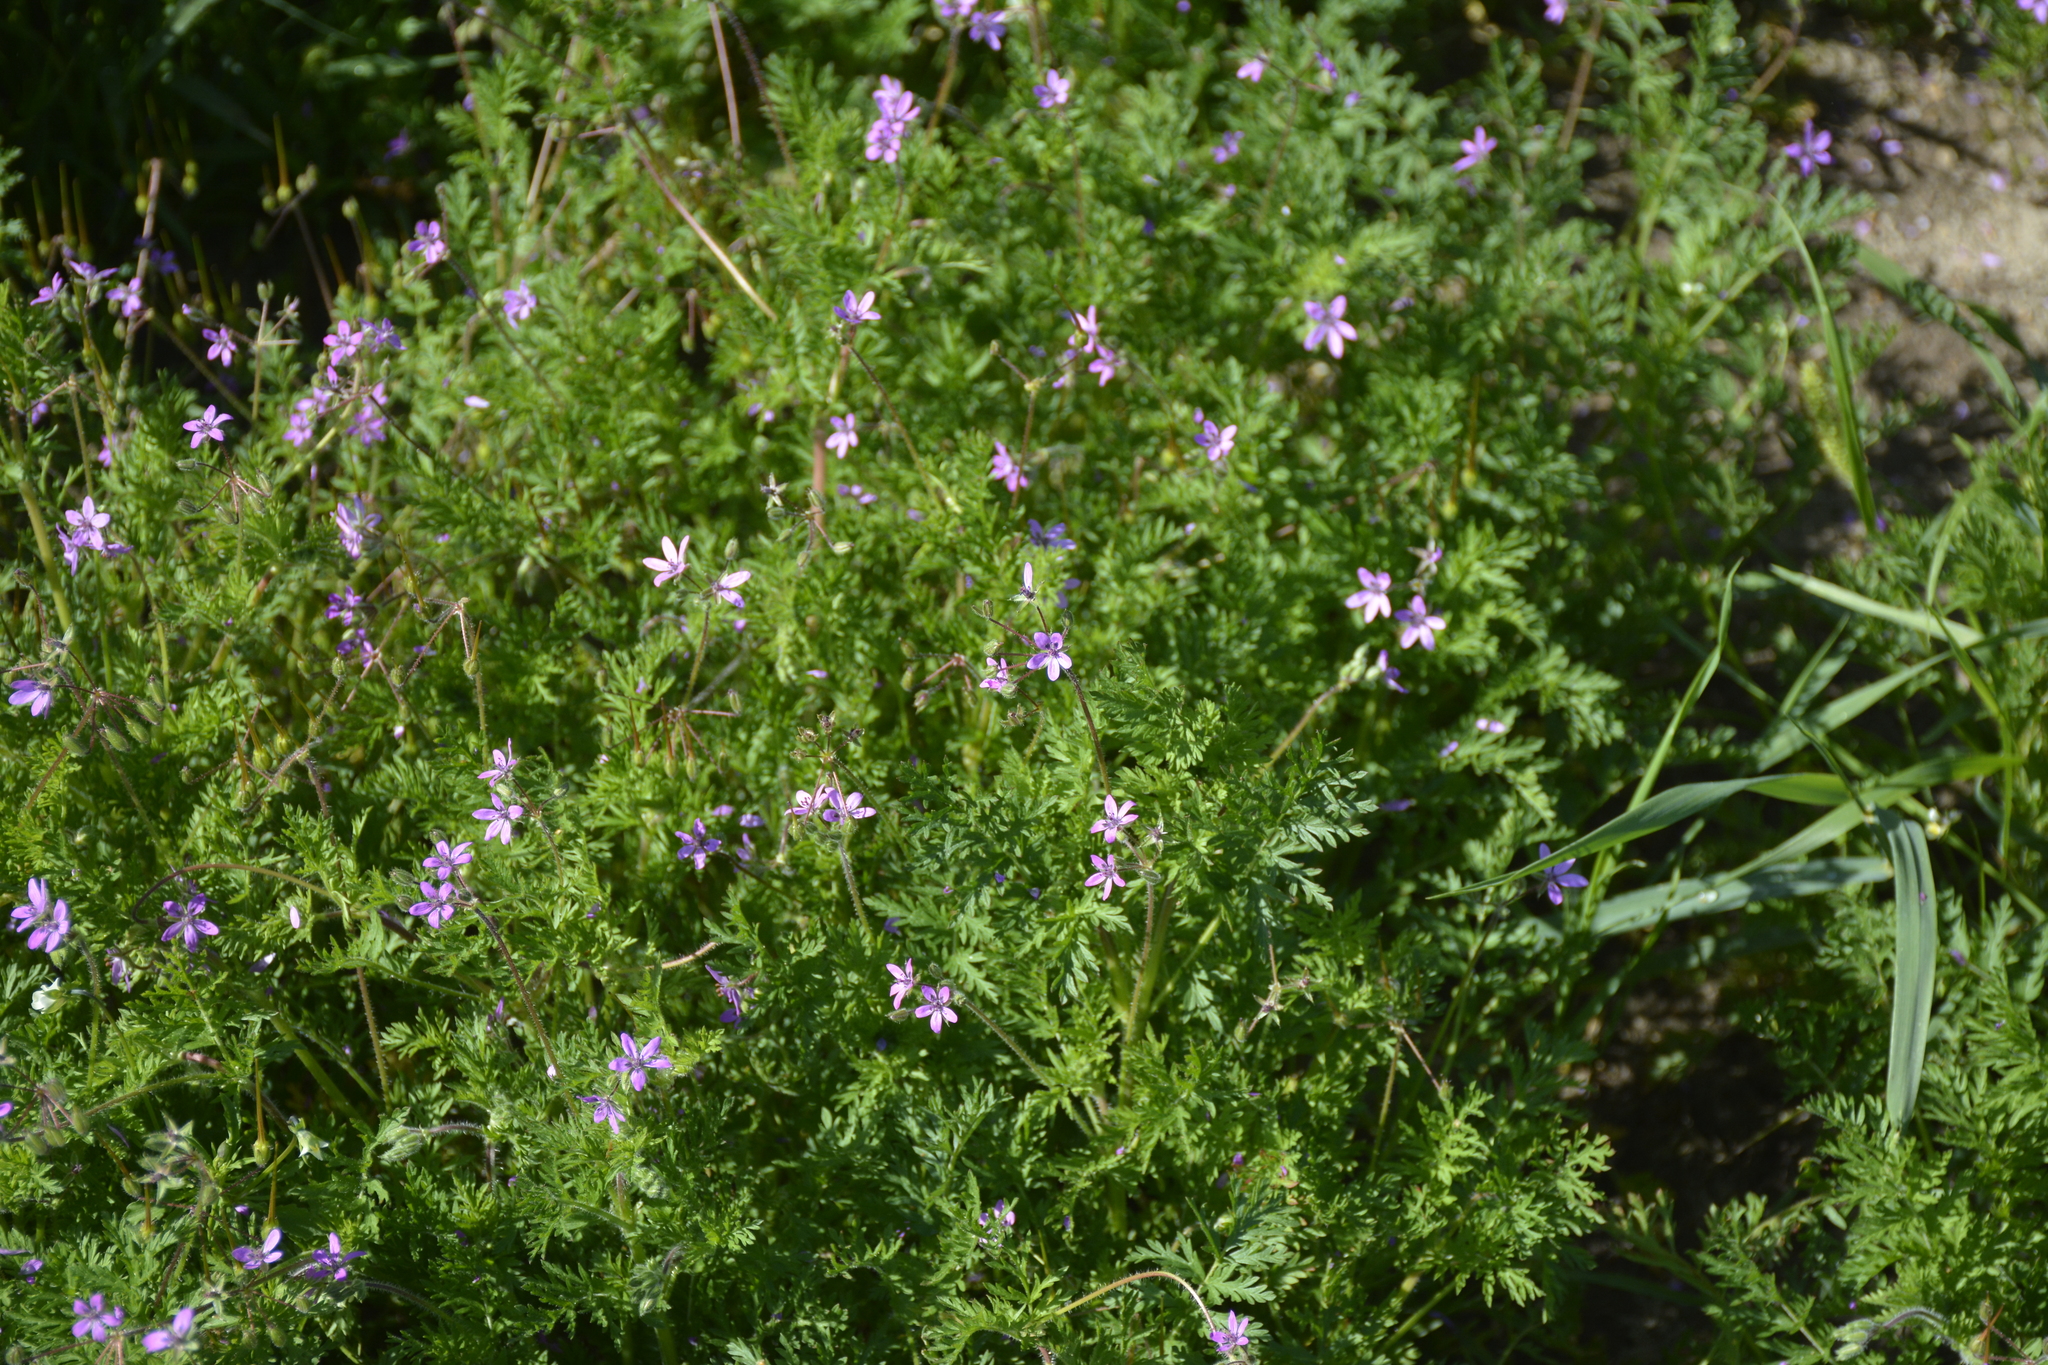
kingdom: Plantae
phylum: Tracheophyta
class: Magnoliopsida
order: Geraniales
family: Geraniaceae
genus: Erodium
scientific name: Erodium cicutarium
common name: Common stork's-bill
